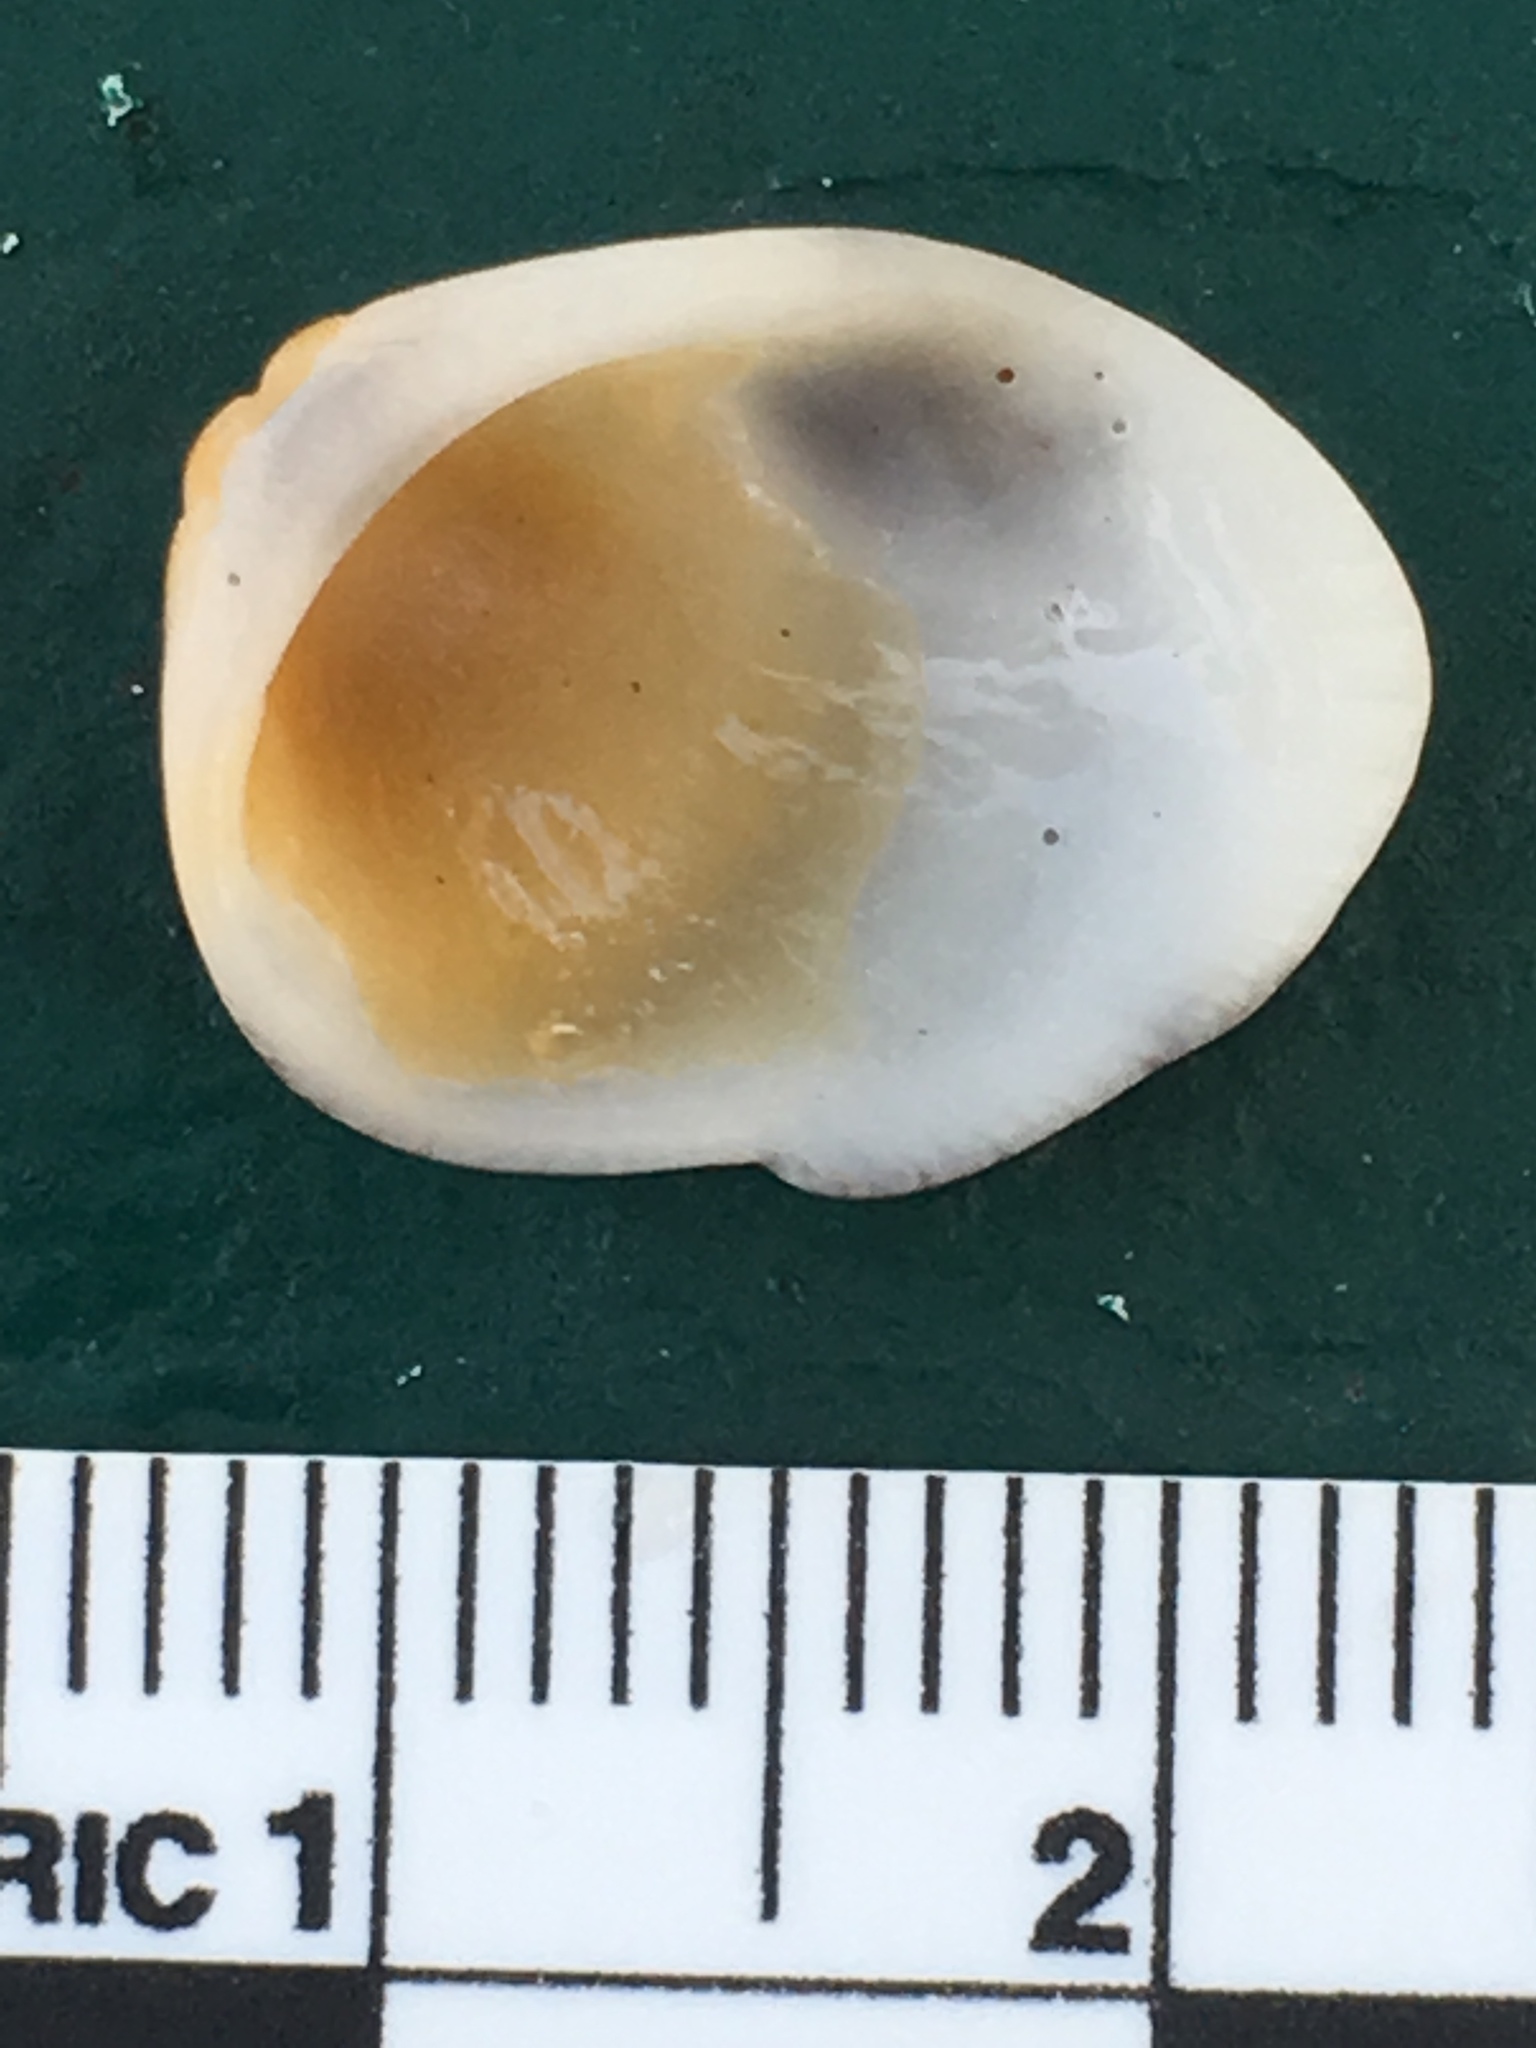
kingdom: Animalia
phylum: Mollusca
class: Bivalvia
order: Arcida
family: Glycymerididae
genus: Glycymeris
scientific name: Glycymeris spectralis
